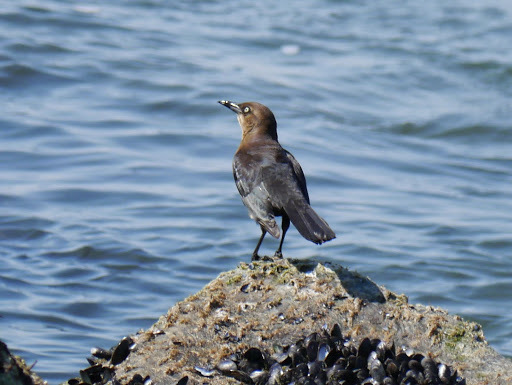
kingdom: Animalia
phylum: Chordata
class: Aves
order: Passeriformes
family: Icteridae
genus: Quiscalus
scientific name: Quiscalus major
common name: Boat-tailed grackle
